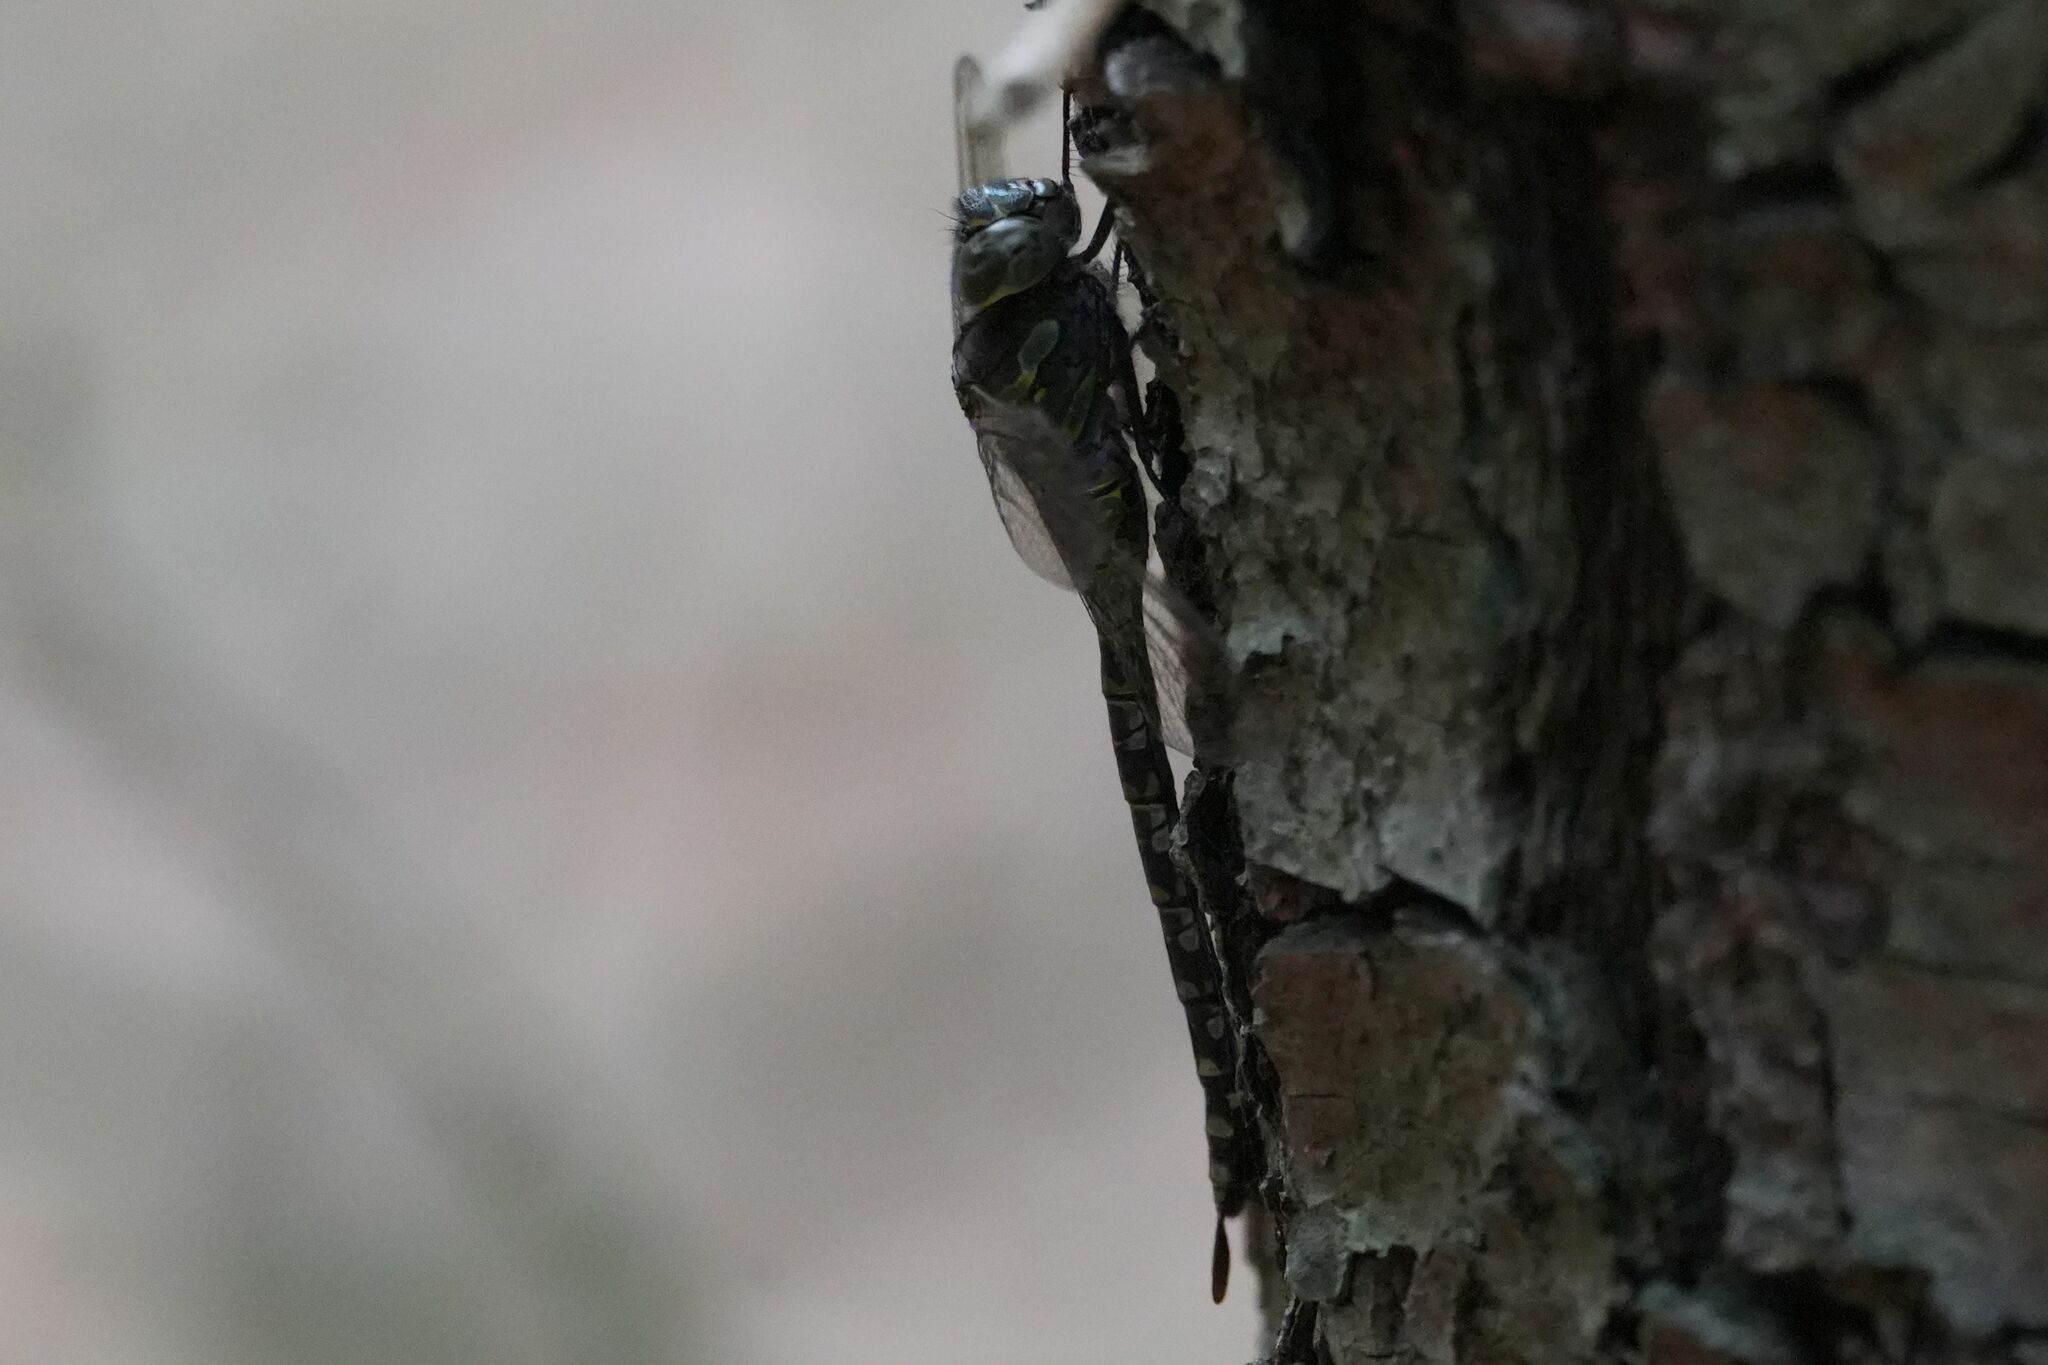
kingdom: Animalia
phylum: Arthropoda
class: Insecta
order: Odonata
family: Aeshnidae
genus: Aeshna
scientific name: Aeshna canadensis
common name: Canada darner
